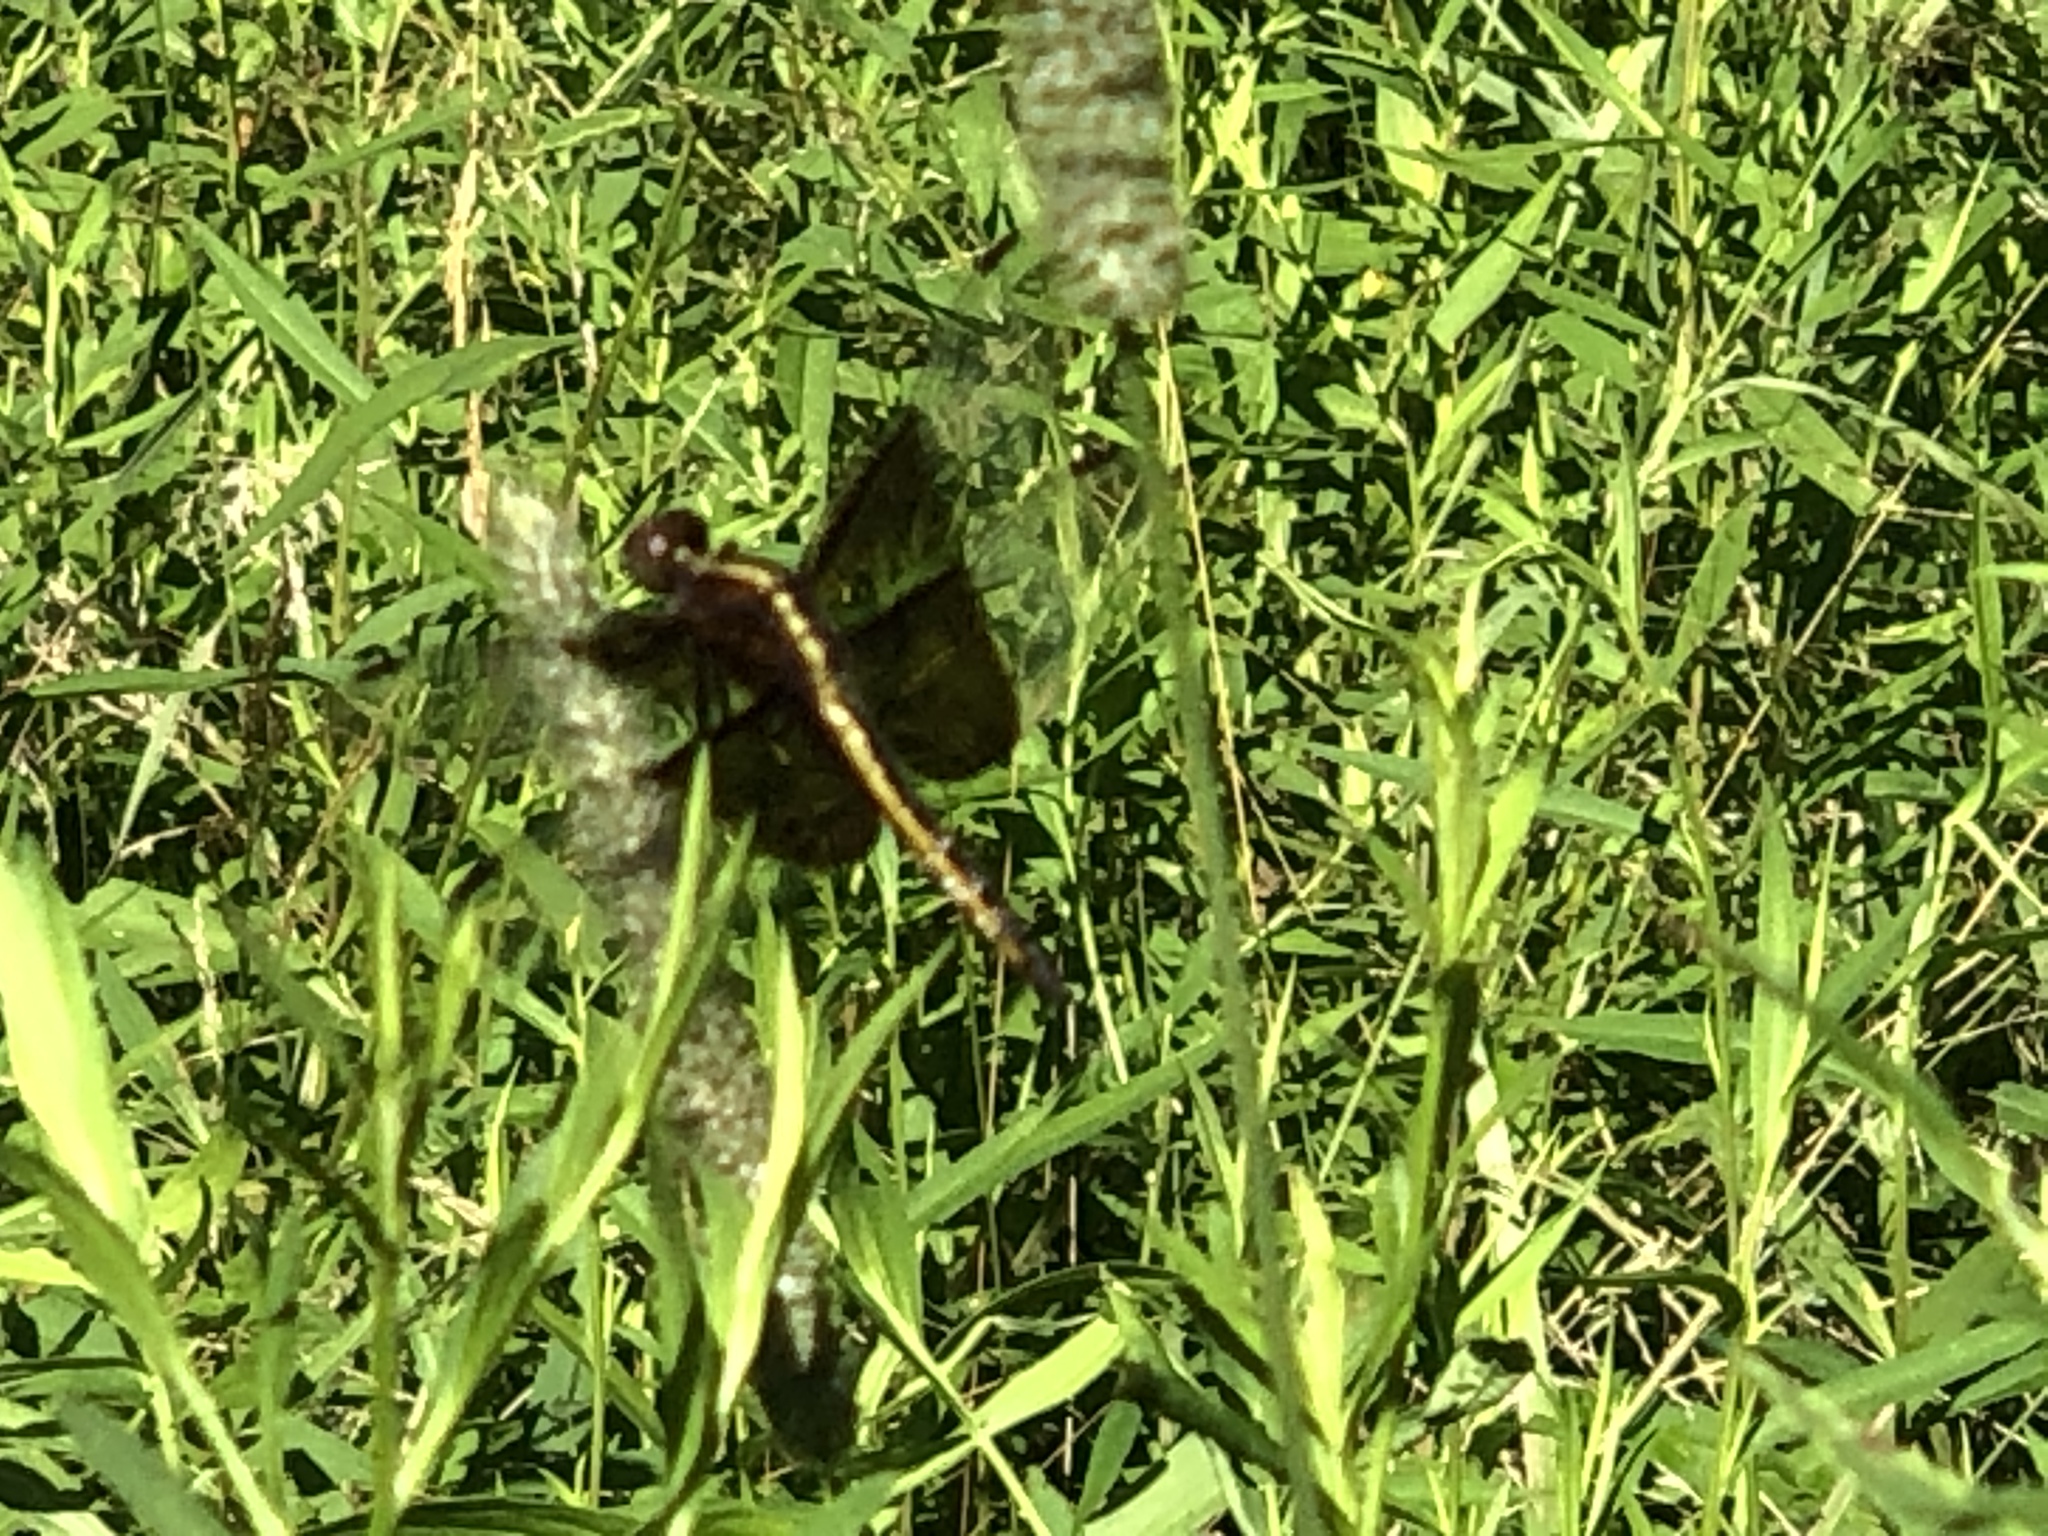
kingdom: Animalia
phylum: Arthropoda
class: Insecta
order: Odonata
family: Libellulidae
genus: Libellula
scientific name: Libellula luctuosa
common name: Widow skimmer
